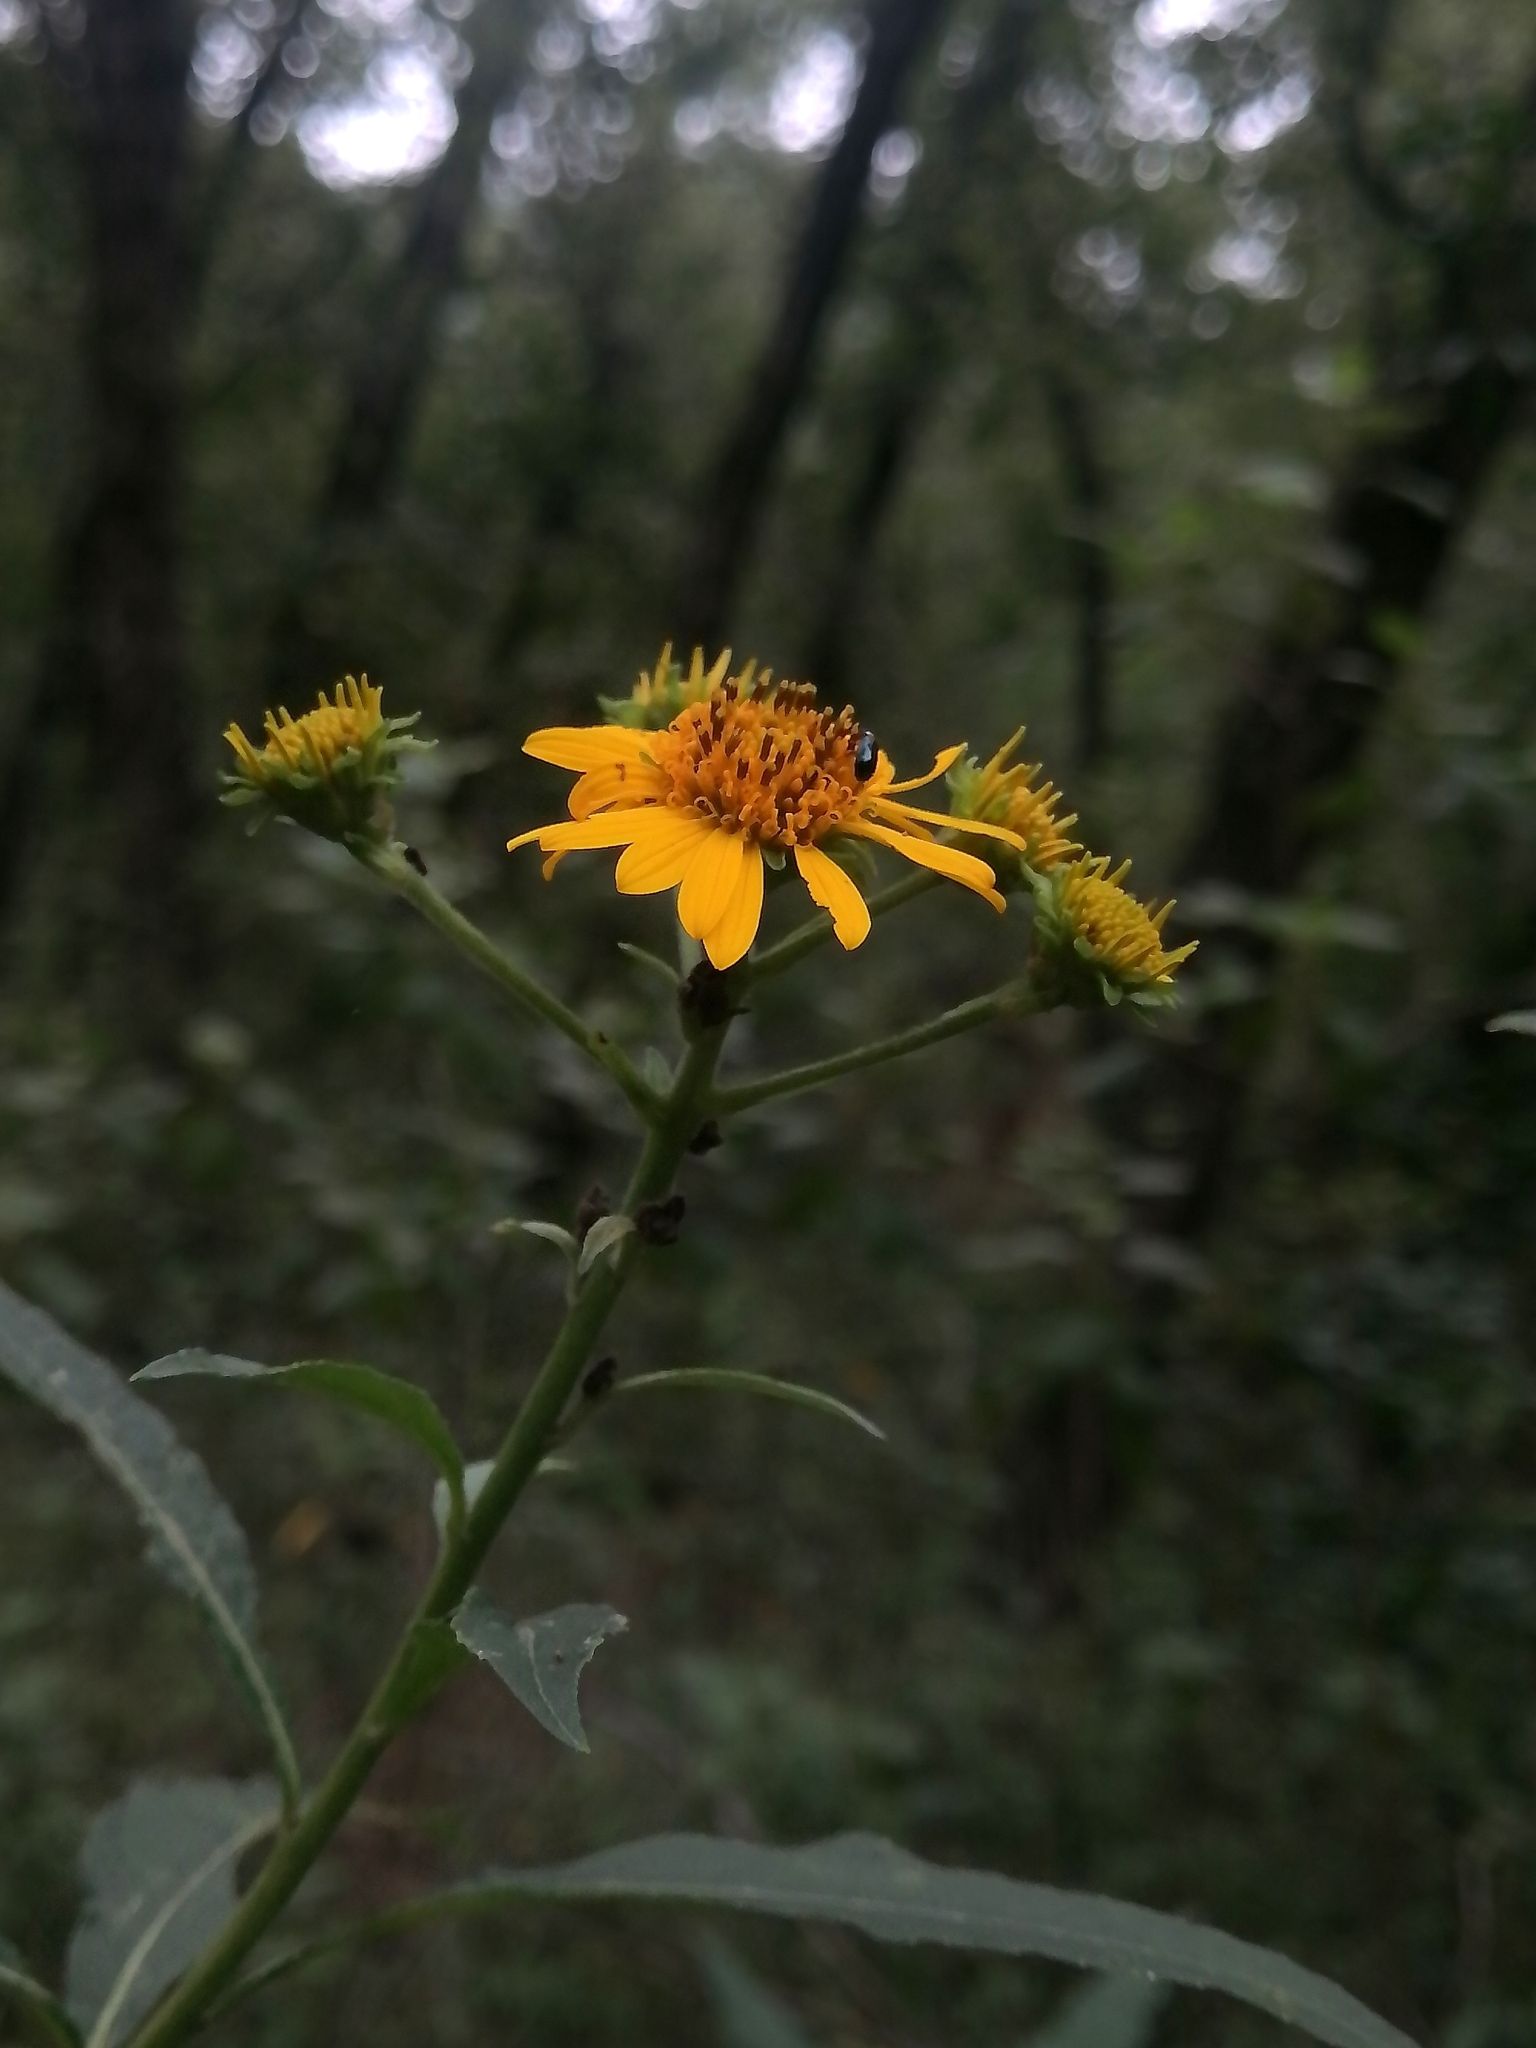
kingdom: Plantae
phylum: Tracheophyta
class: Magnoliopsida
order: Asterales
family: Asteraceae
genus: Verbesina
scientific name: Verbesina persicifolia
